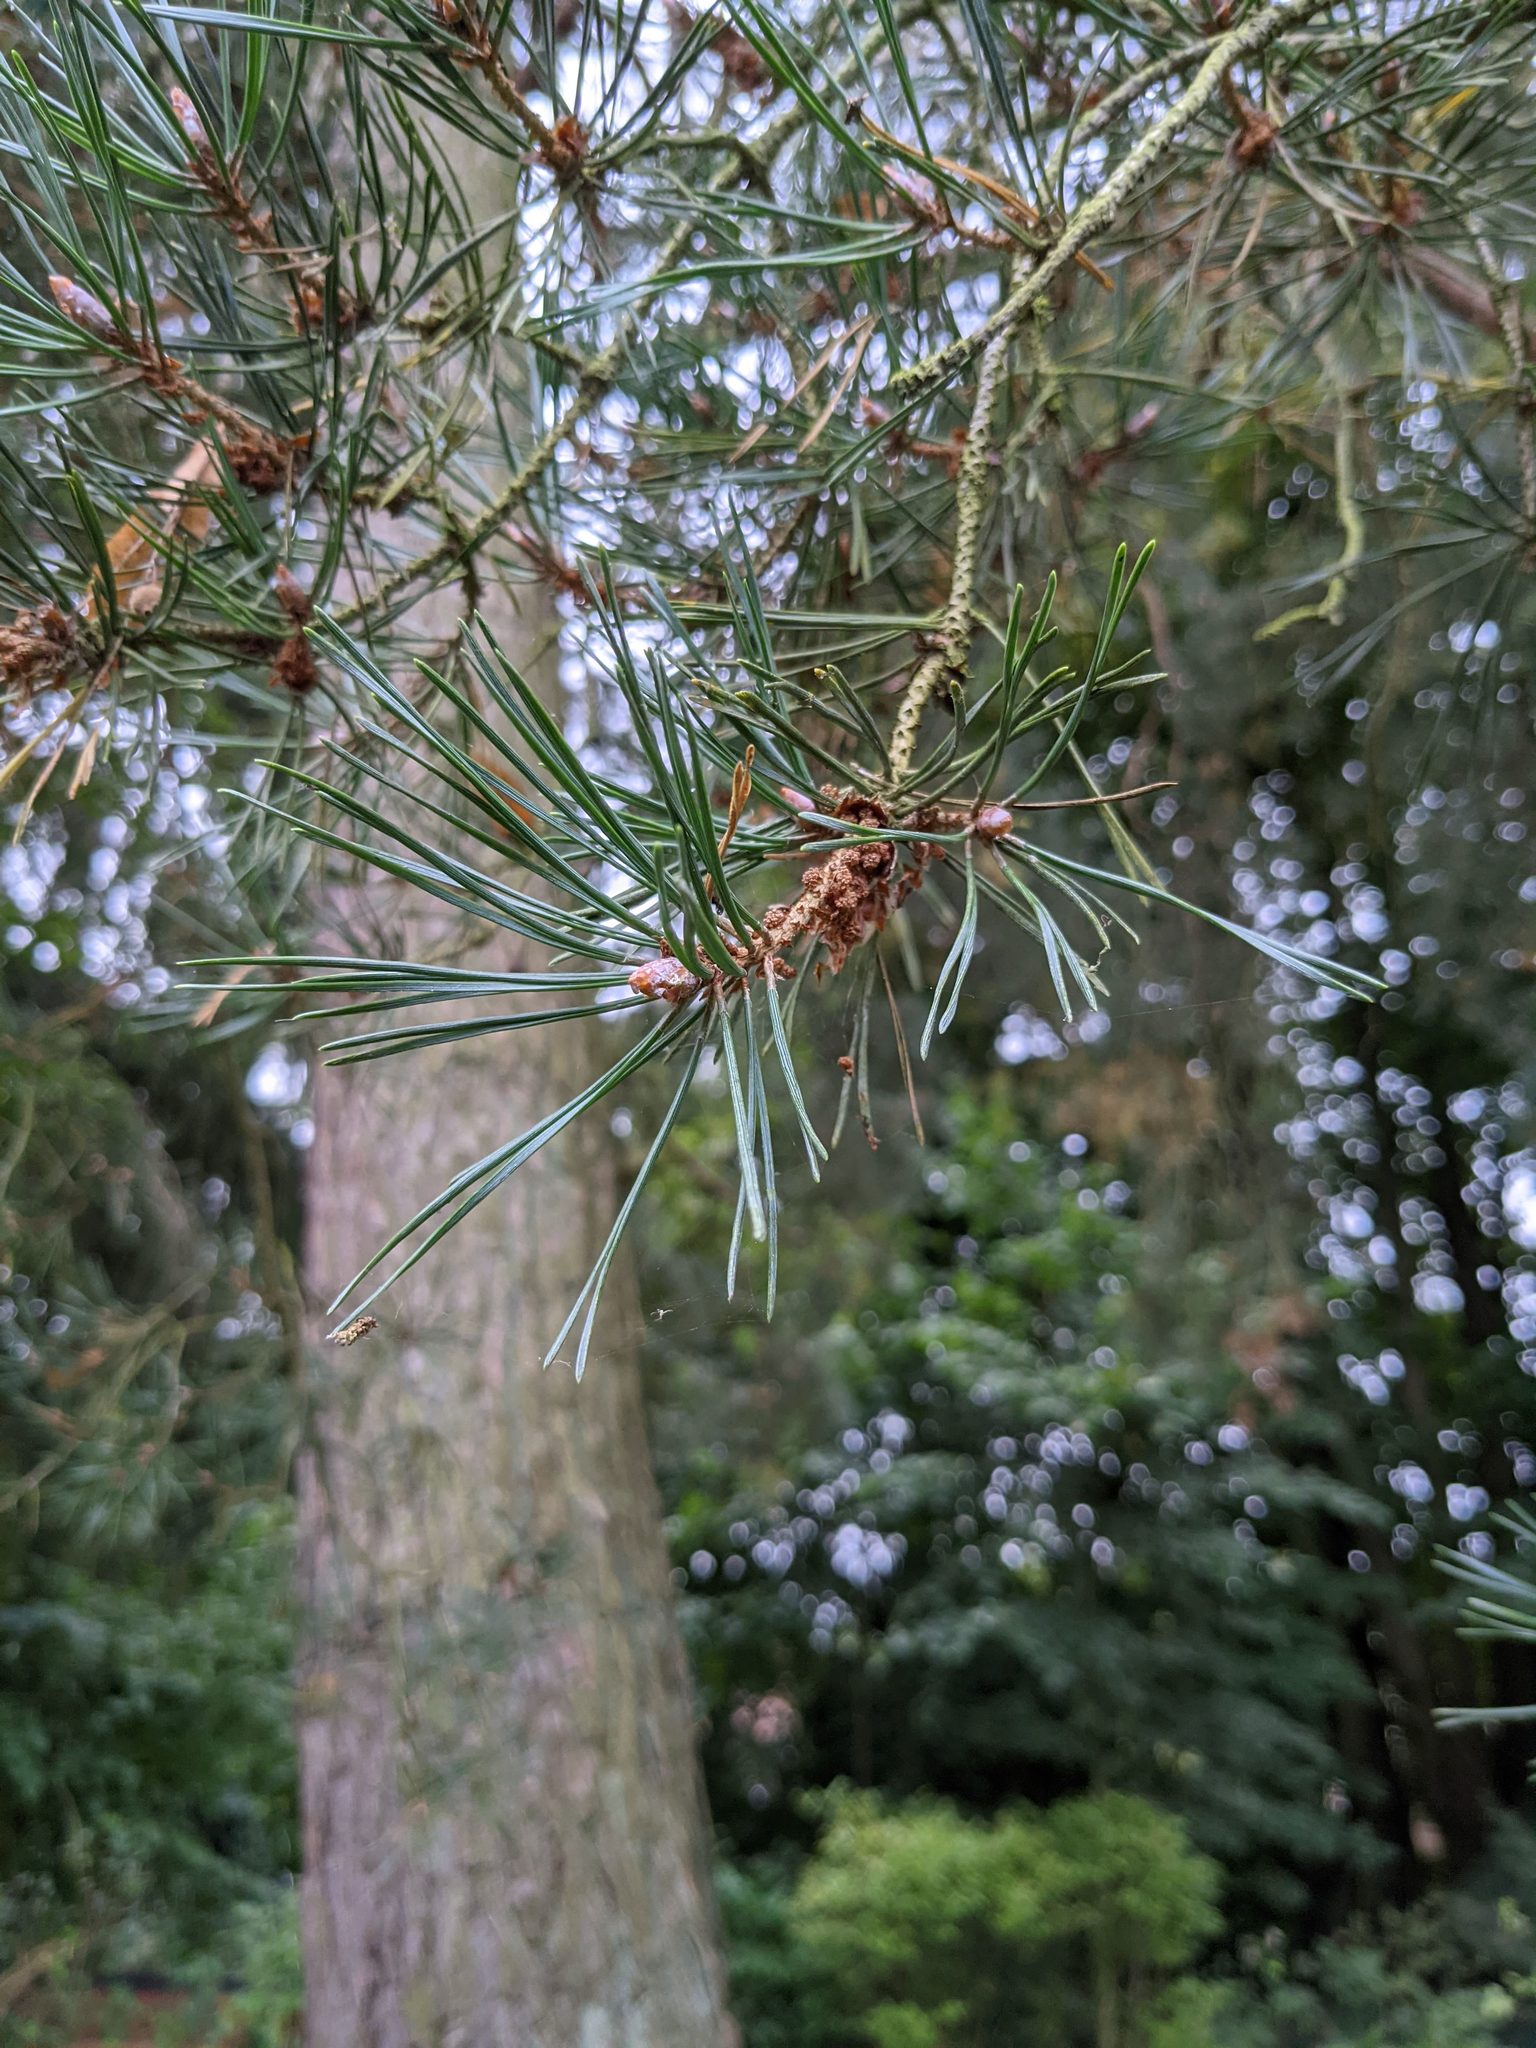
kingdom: Plantae
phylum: Tracheophyta
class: Pinopsida
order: Pinales
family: Pinaceae
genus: Pinus
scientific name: Pinus sylvestris
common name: Scots pine
